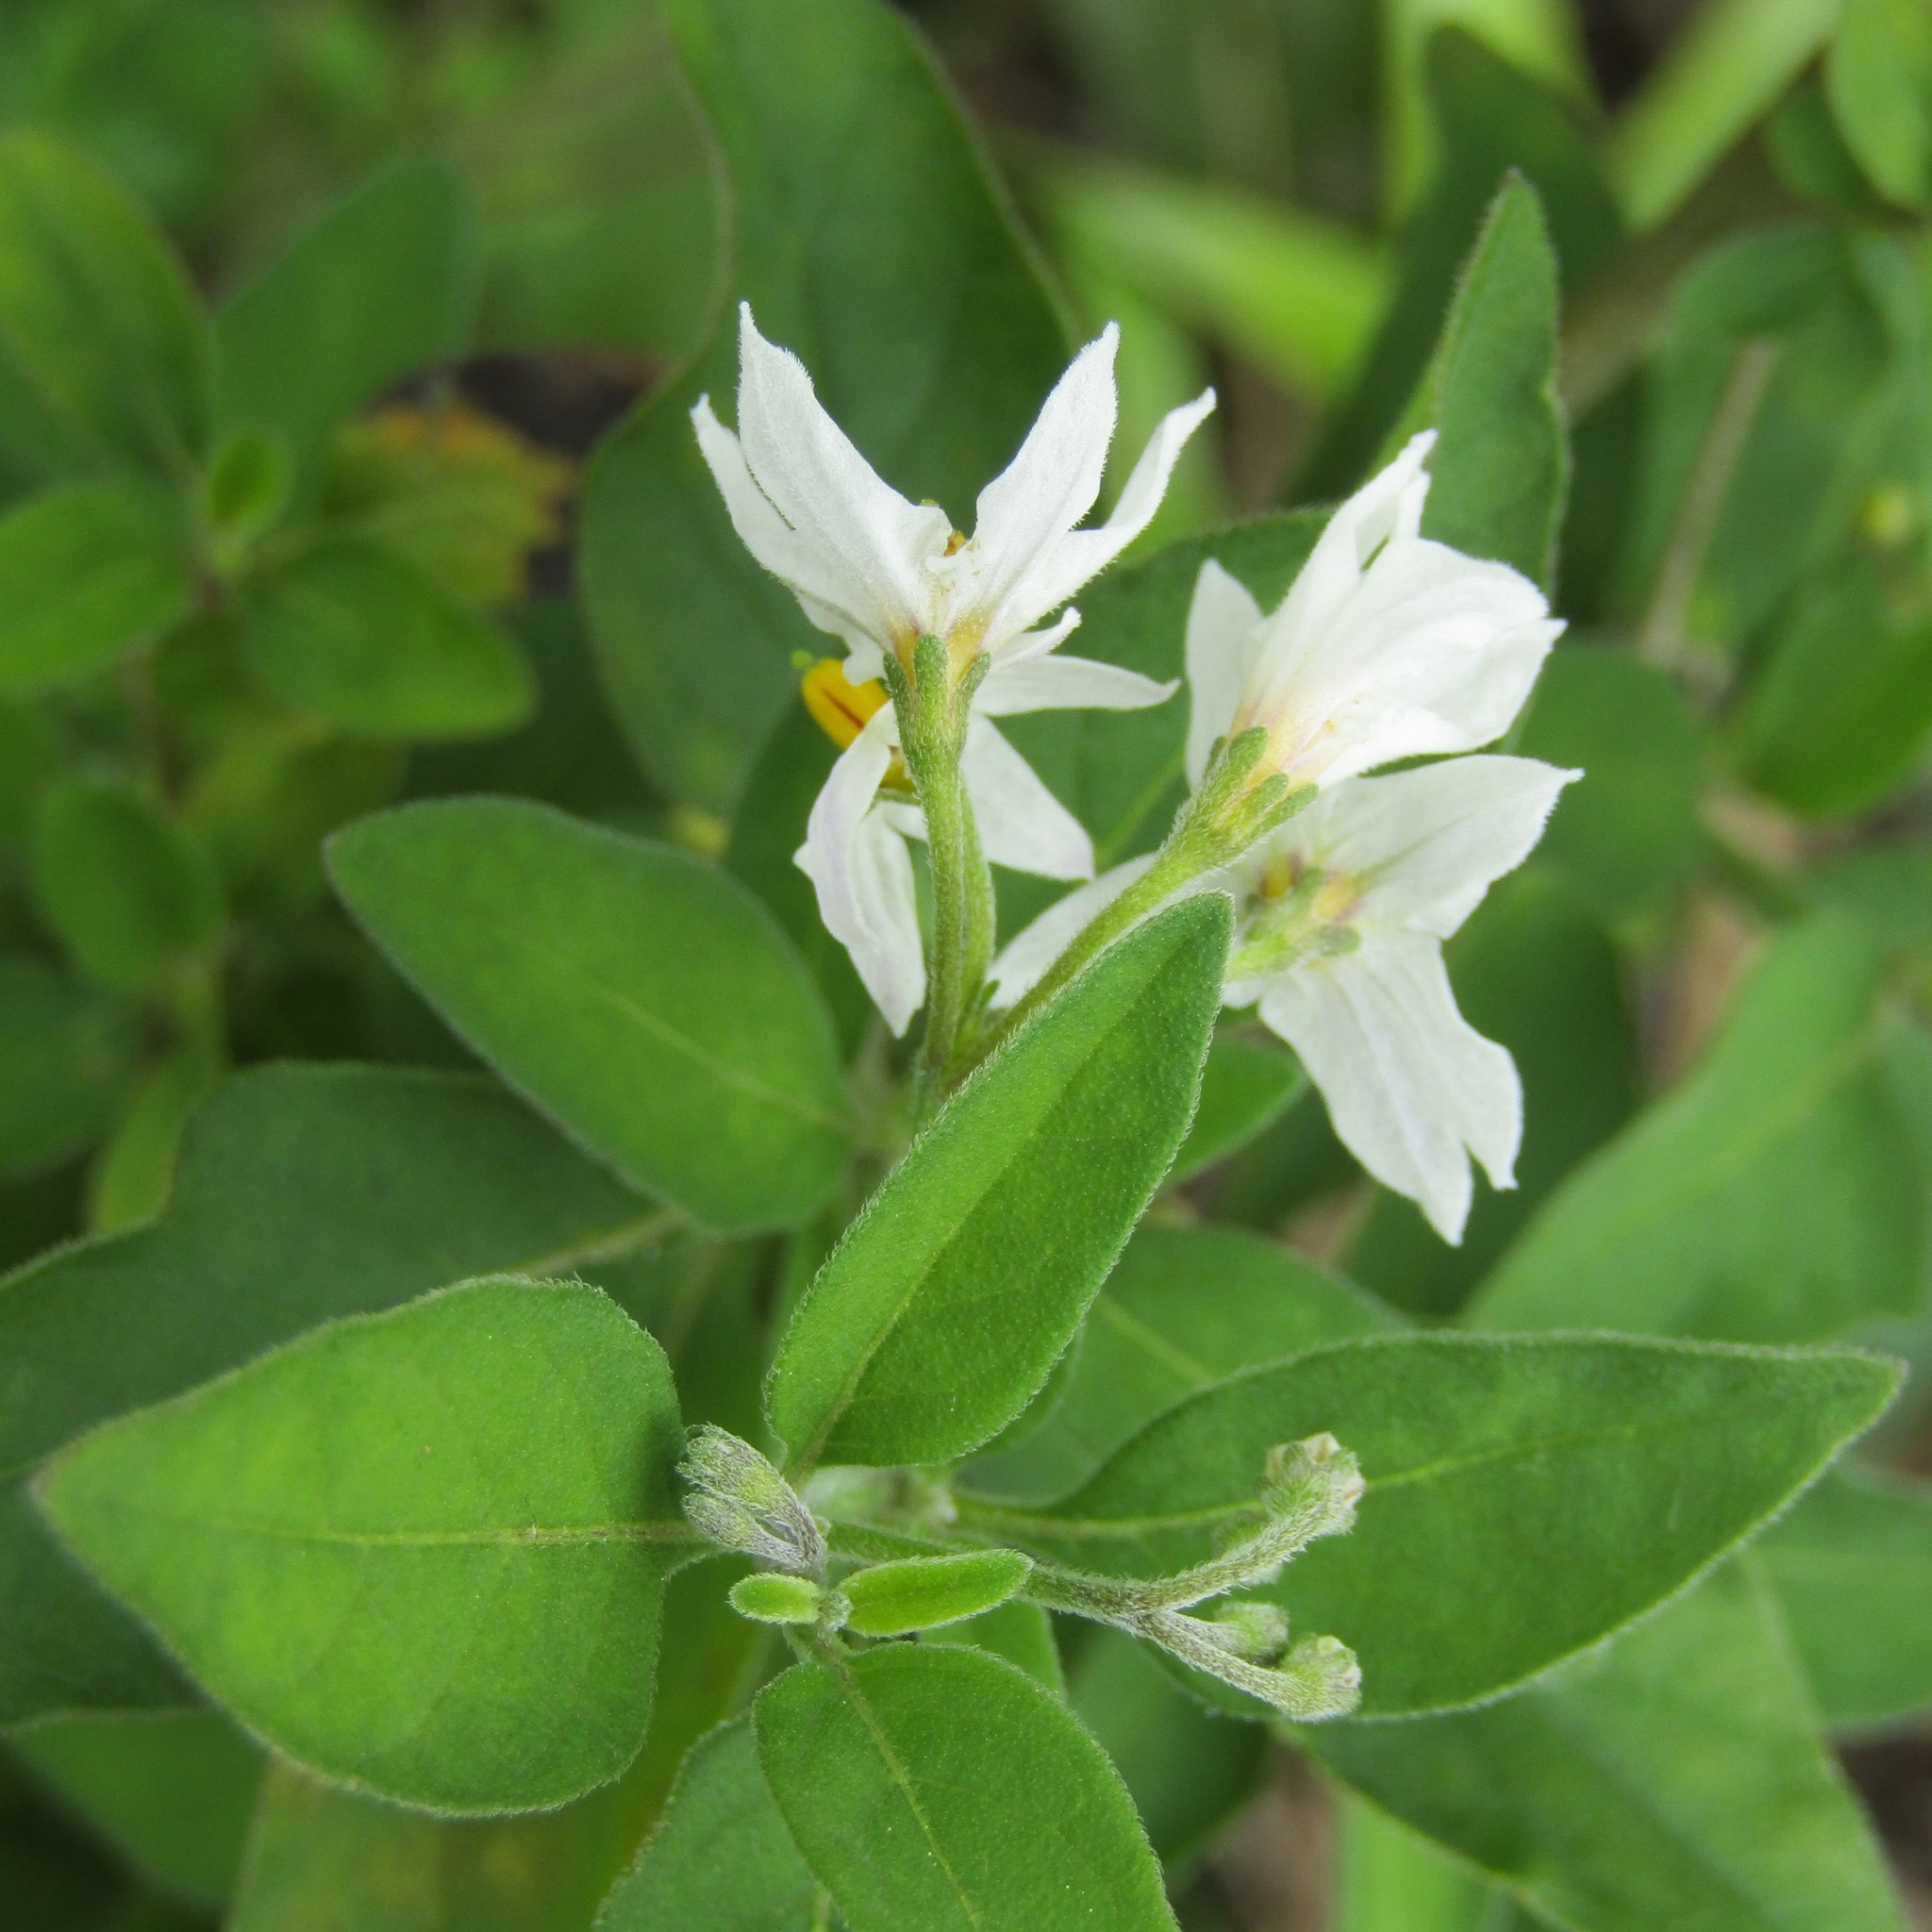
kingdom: Plantae
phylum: Tracheophyta
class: Magnoliopsida
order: Solanales
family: Solanaceae
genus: Solanum
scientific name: Solanum chenopodioides
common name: Tall nightshade
